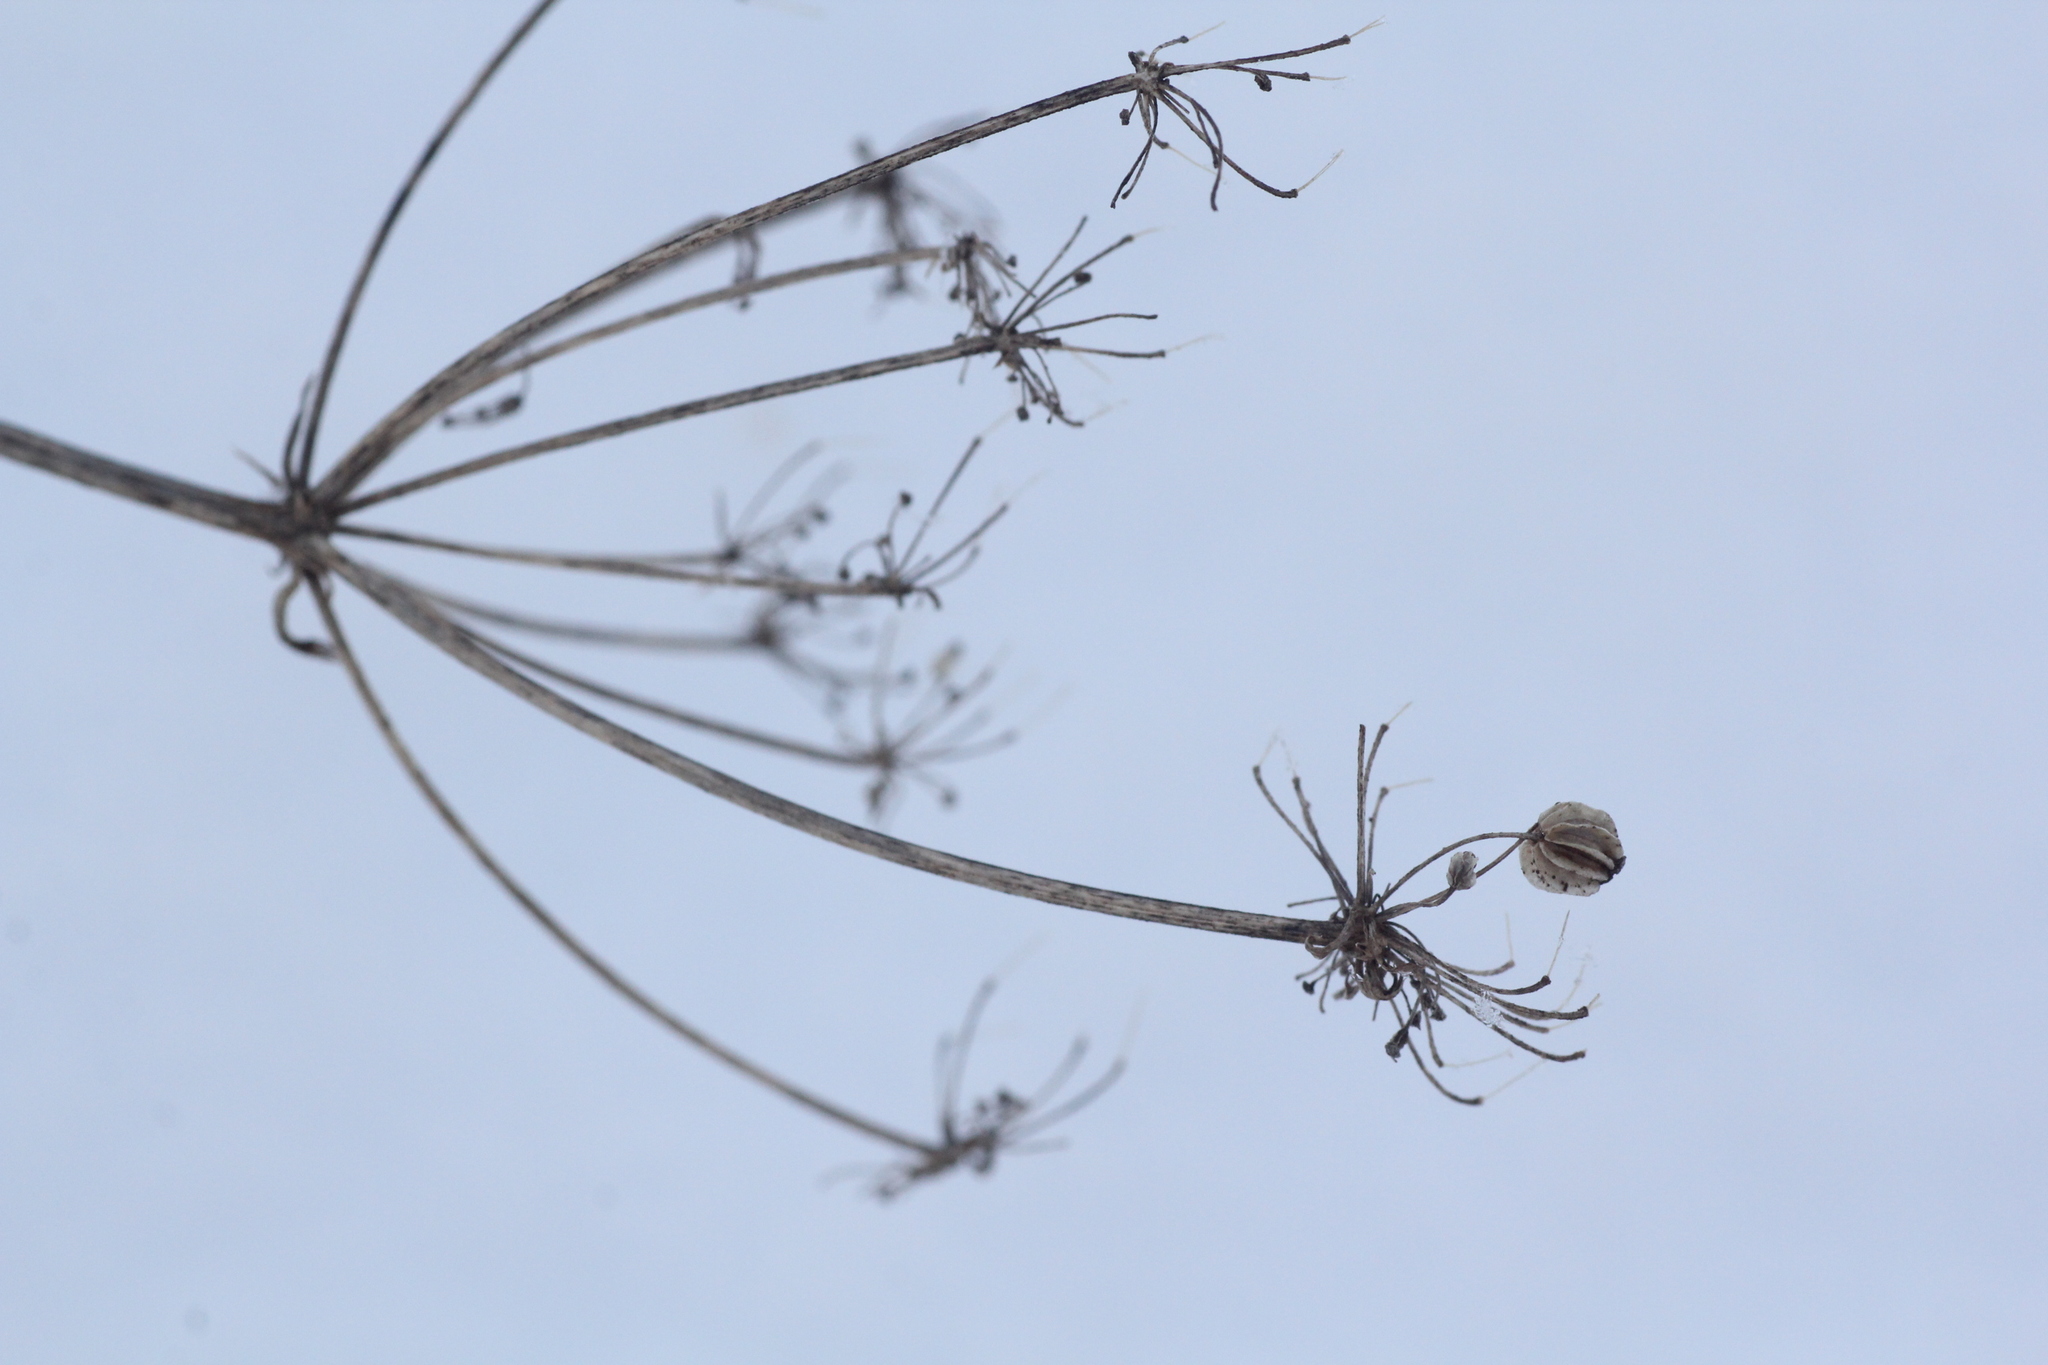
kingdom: Plantae
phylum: Tracheophyta
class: Magnoliopsida
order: Apiales
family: Apiaceae
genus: Pleurospermum
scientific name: Pleurospermum uralense
